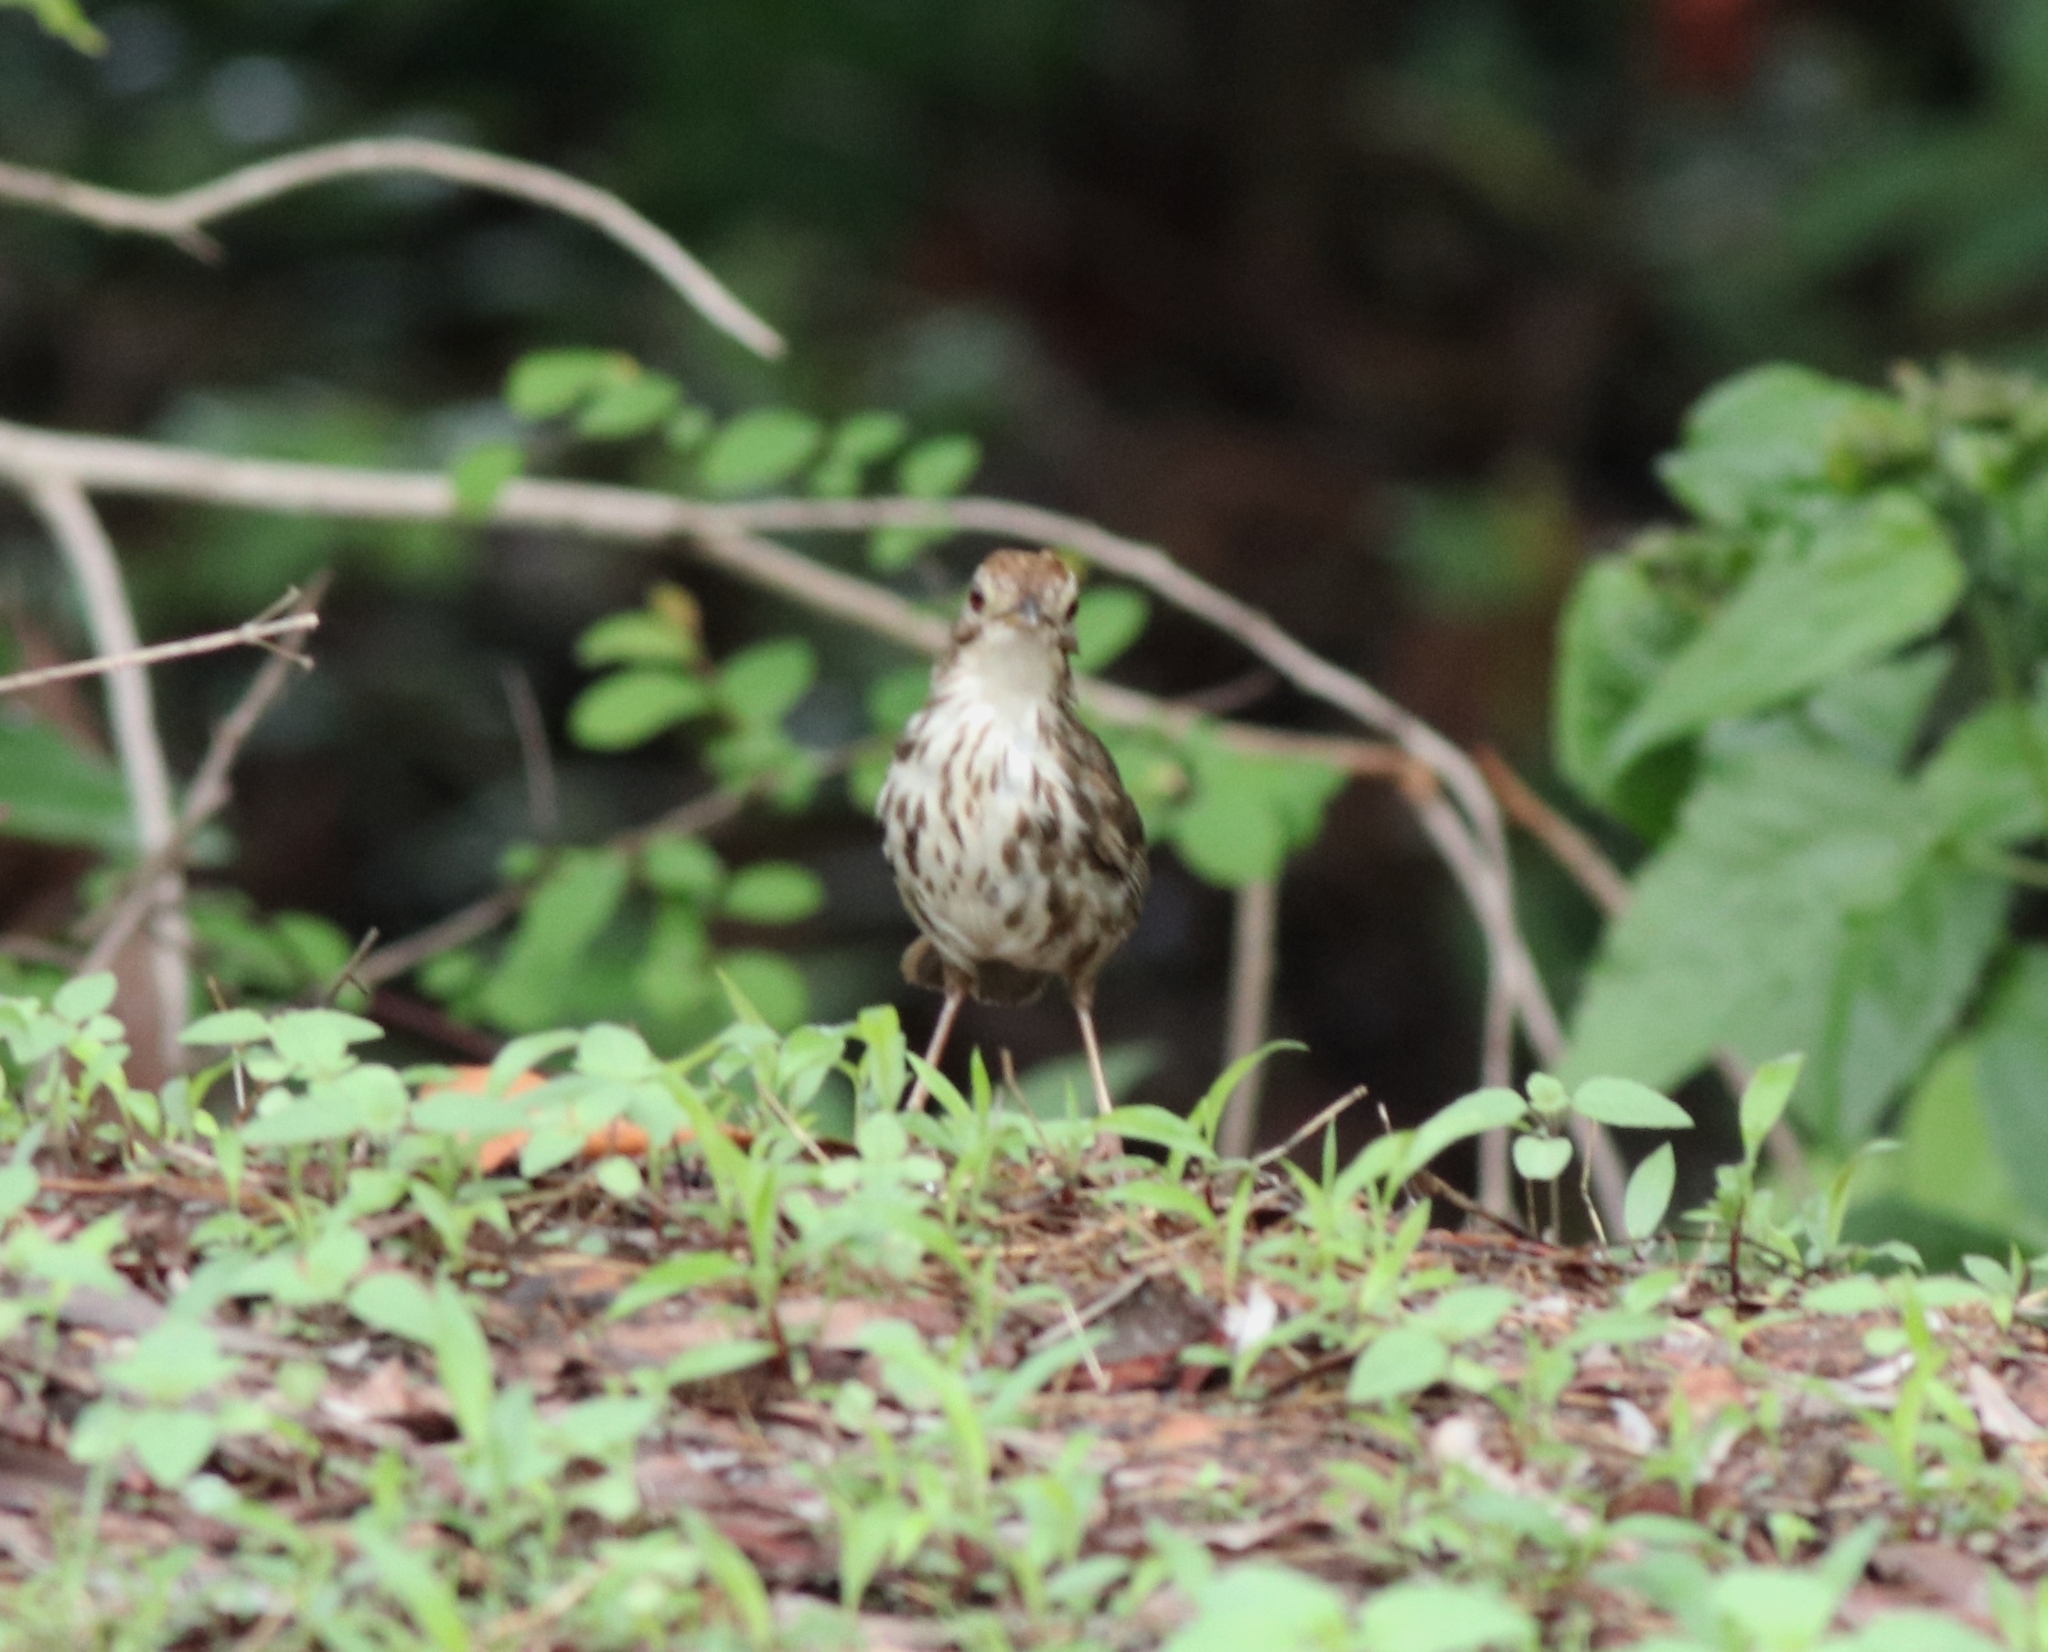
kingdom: Animalia
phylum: Chordata
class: Aves
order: Passeriformes
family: Pellorneidae
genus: Pellorneum
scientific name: Pellorneum ruficeps
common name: Puff-throated babbler
